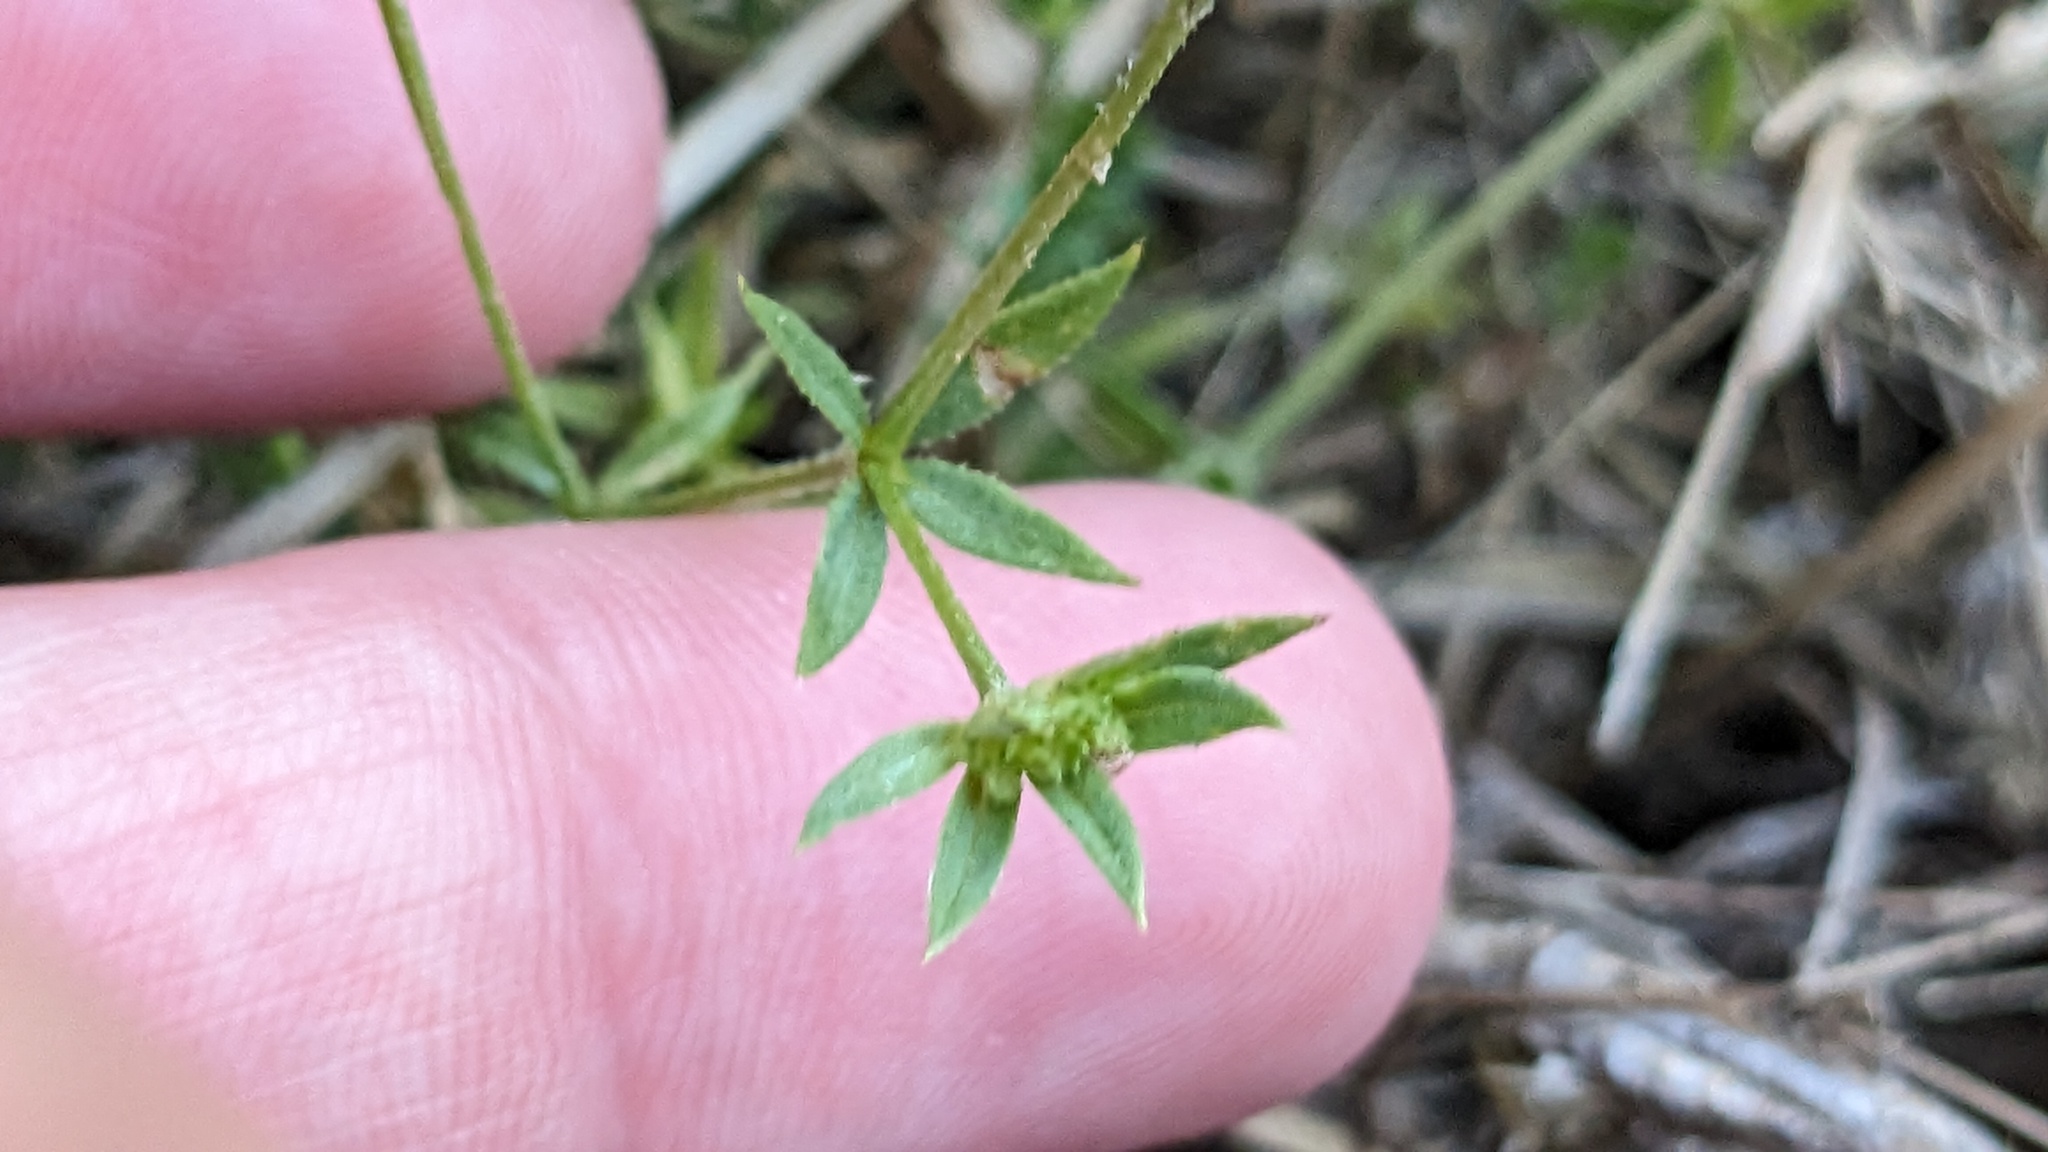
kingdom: Plantae
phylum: Tracheophyta
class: Magnoliopsida
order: Gentianales
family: Rubiaceae
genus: Sherardia
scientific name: Sherardia arvensis
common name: Field madder
